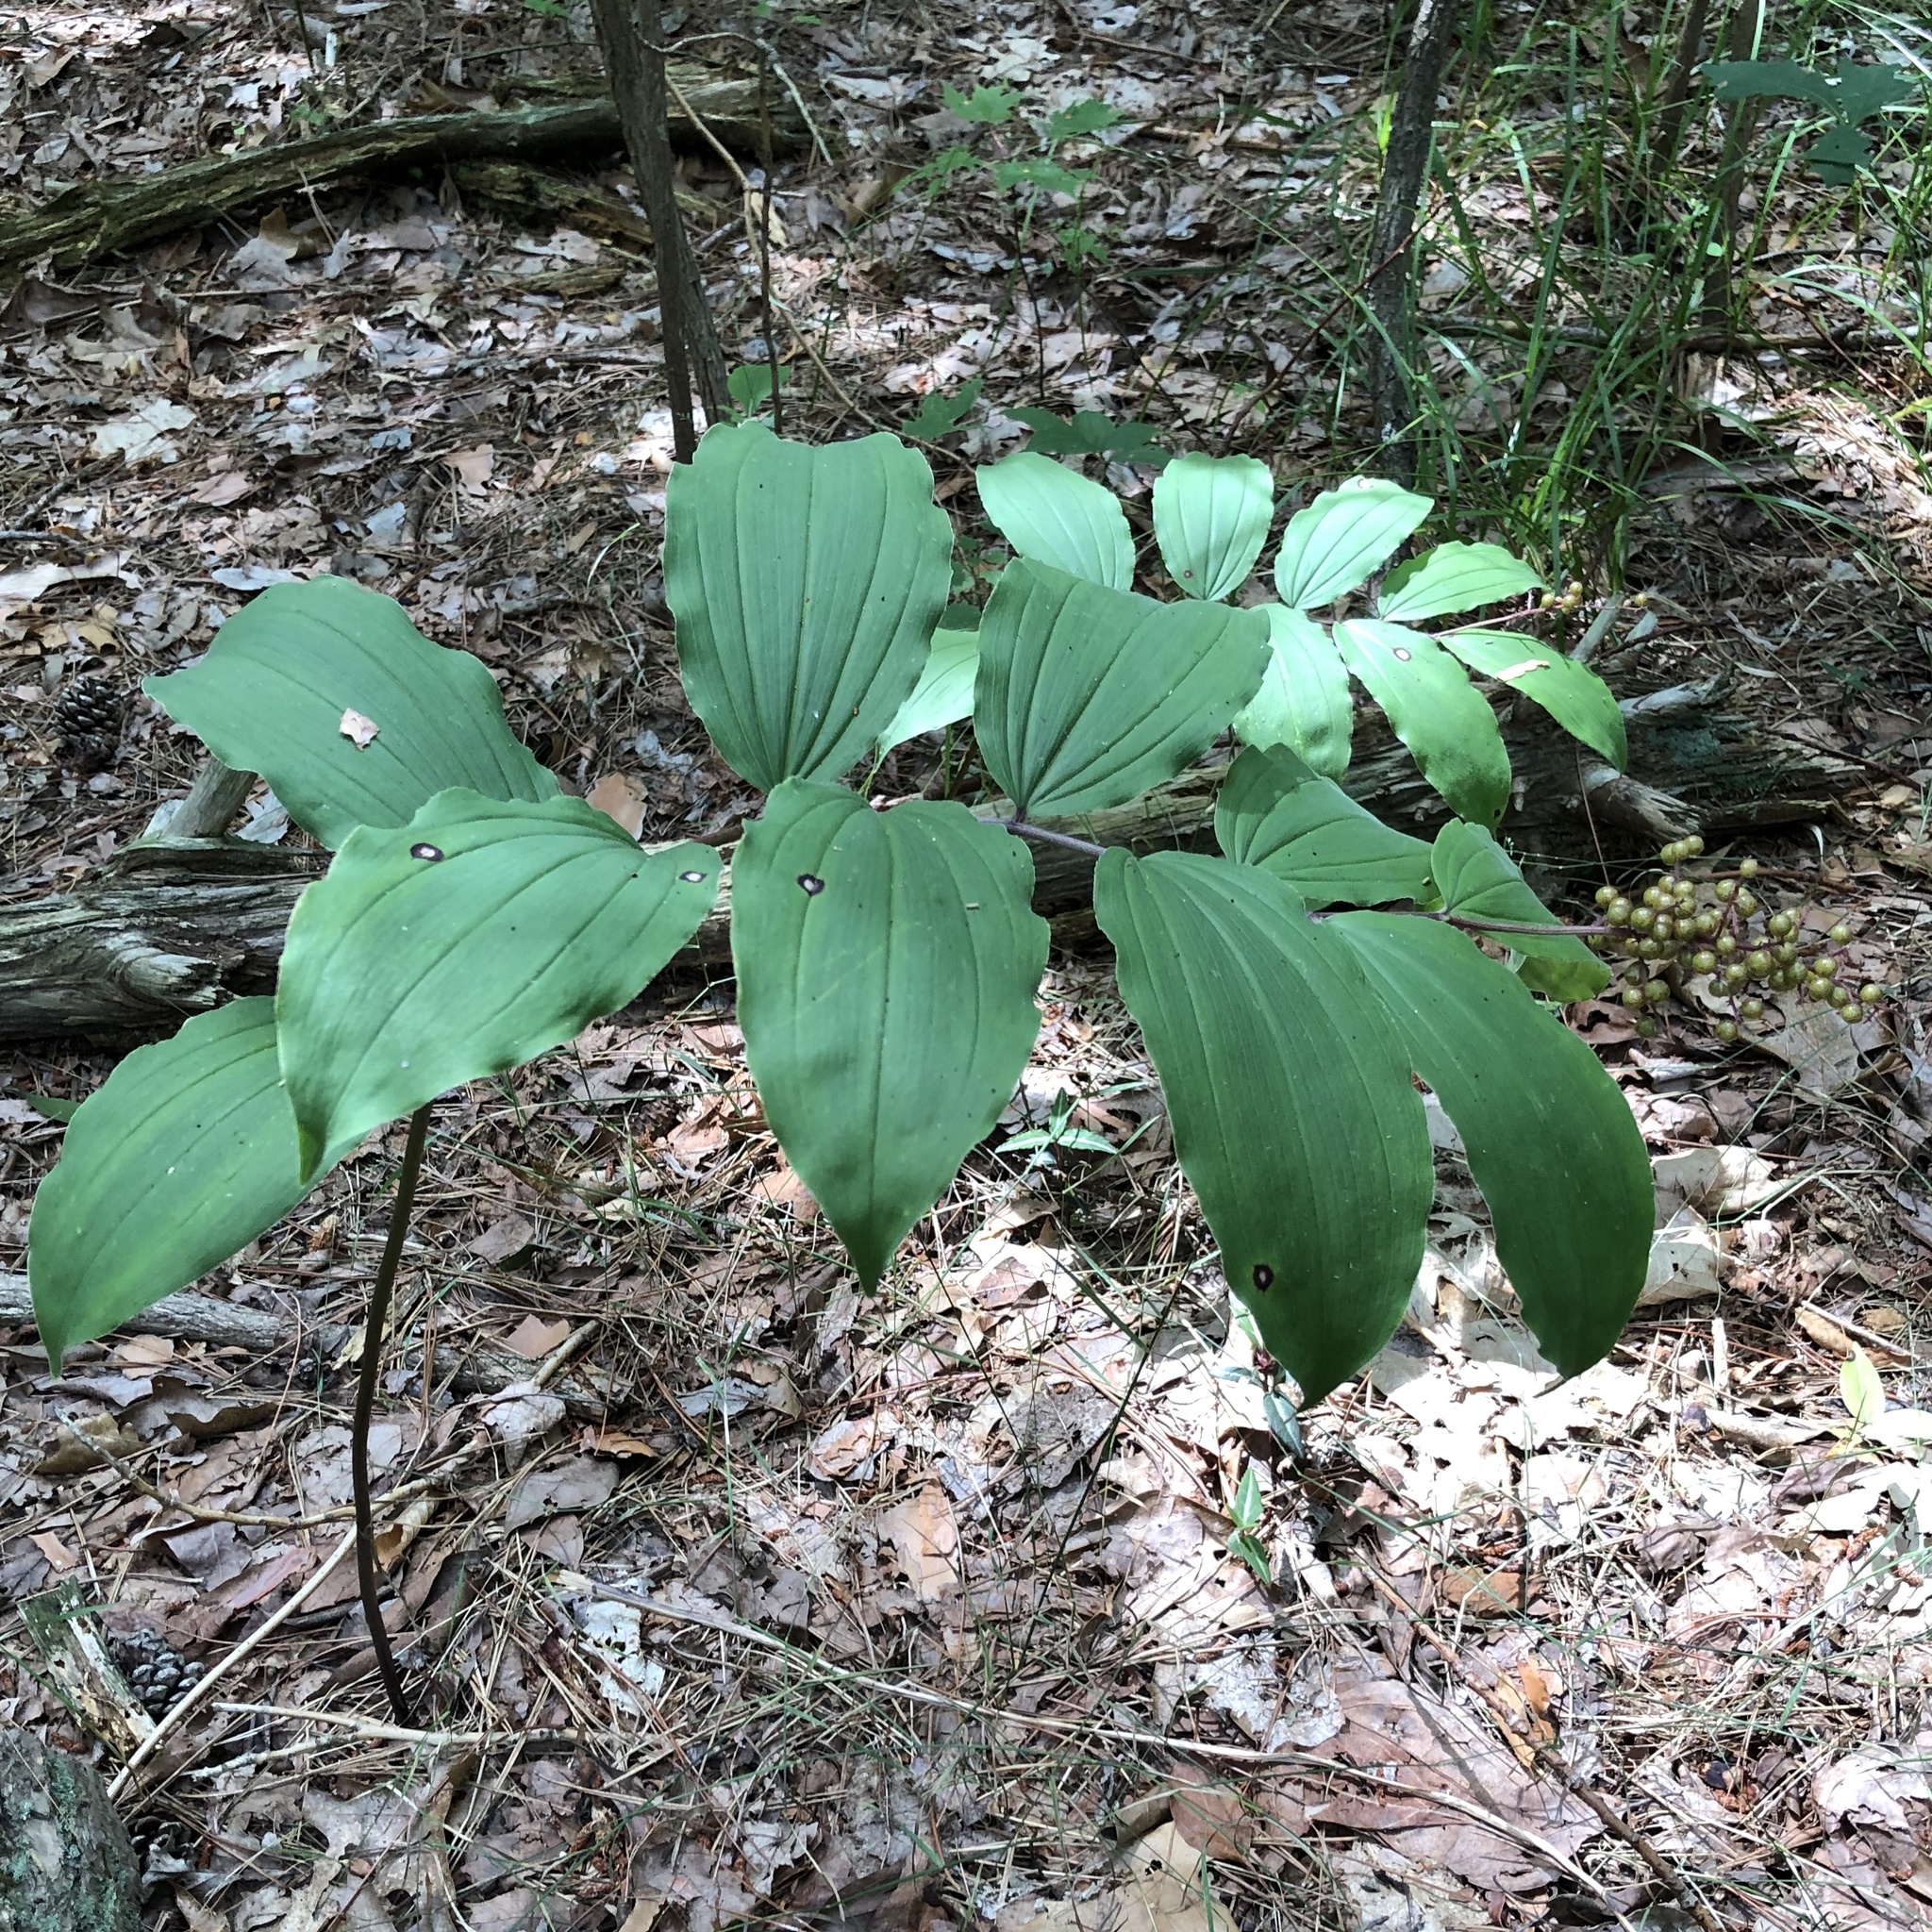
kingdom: Plantae
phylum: Tracheophyta
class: Liliopsida
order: Asparagales
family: Asparagaceae
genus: Maianthemum
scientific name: Maianthemum racemosum
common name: False spikenard
